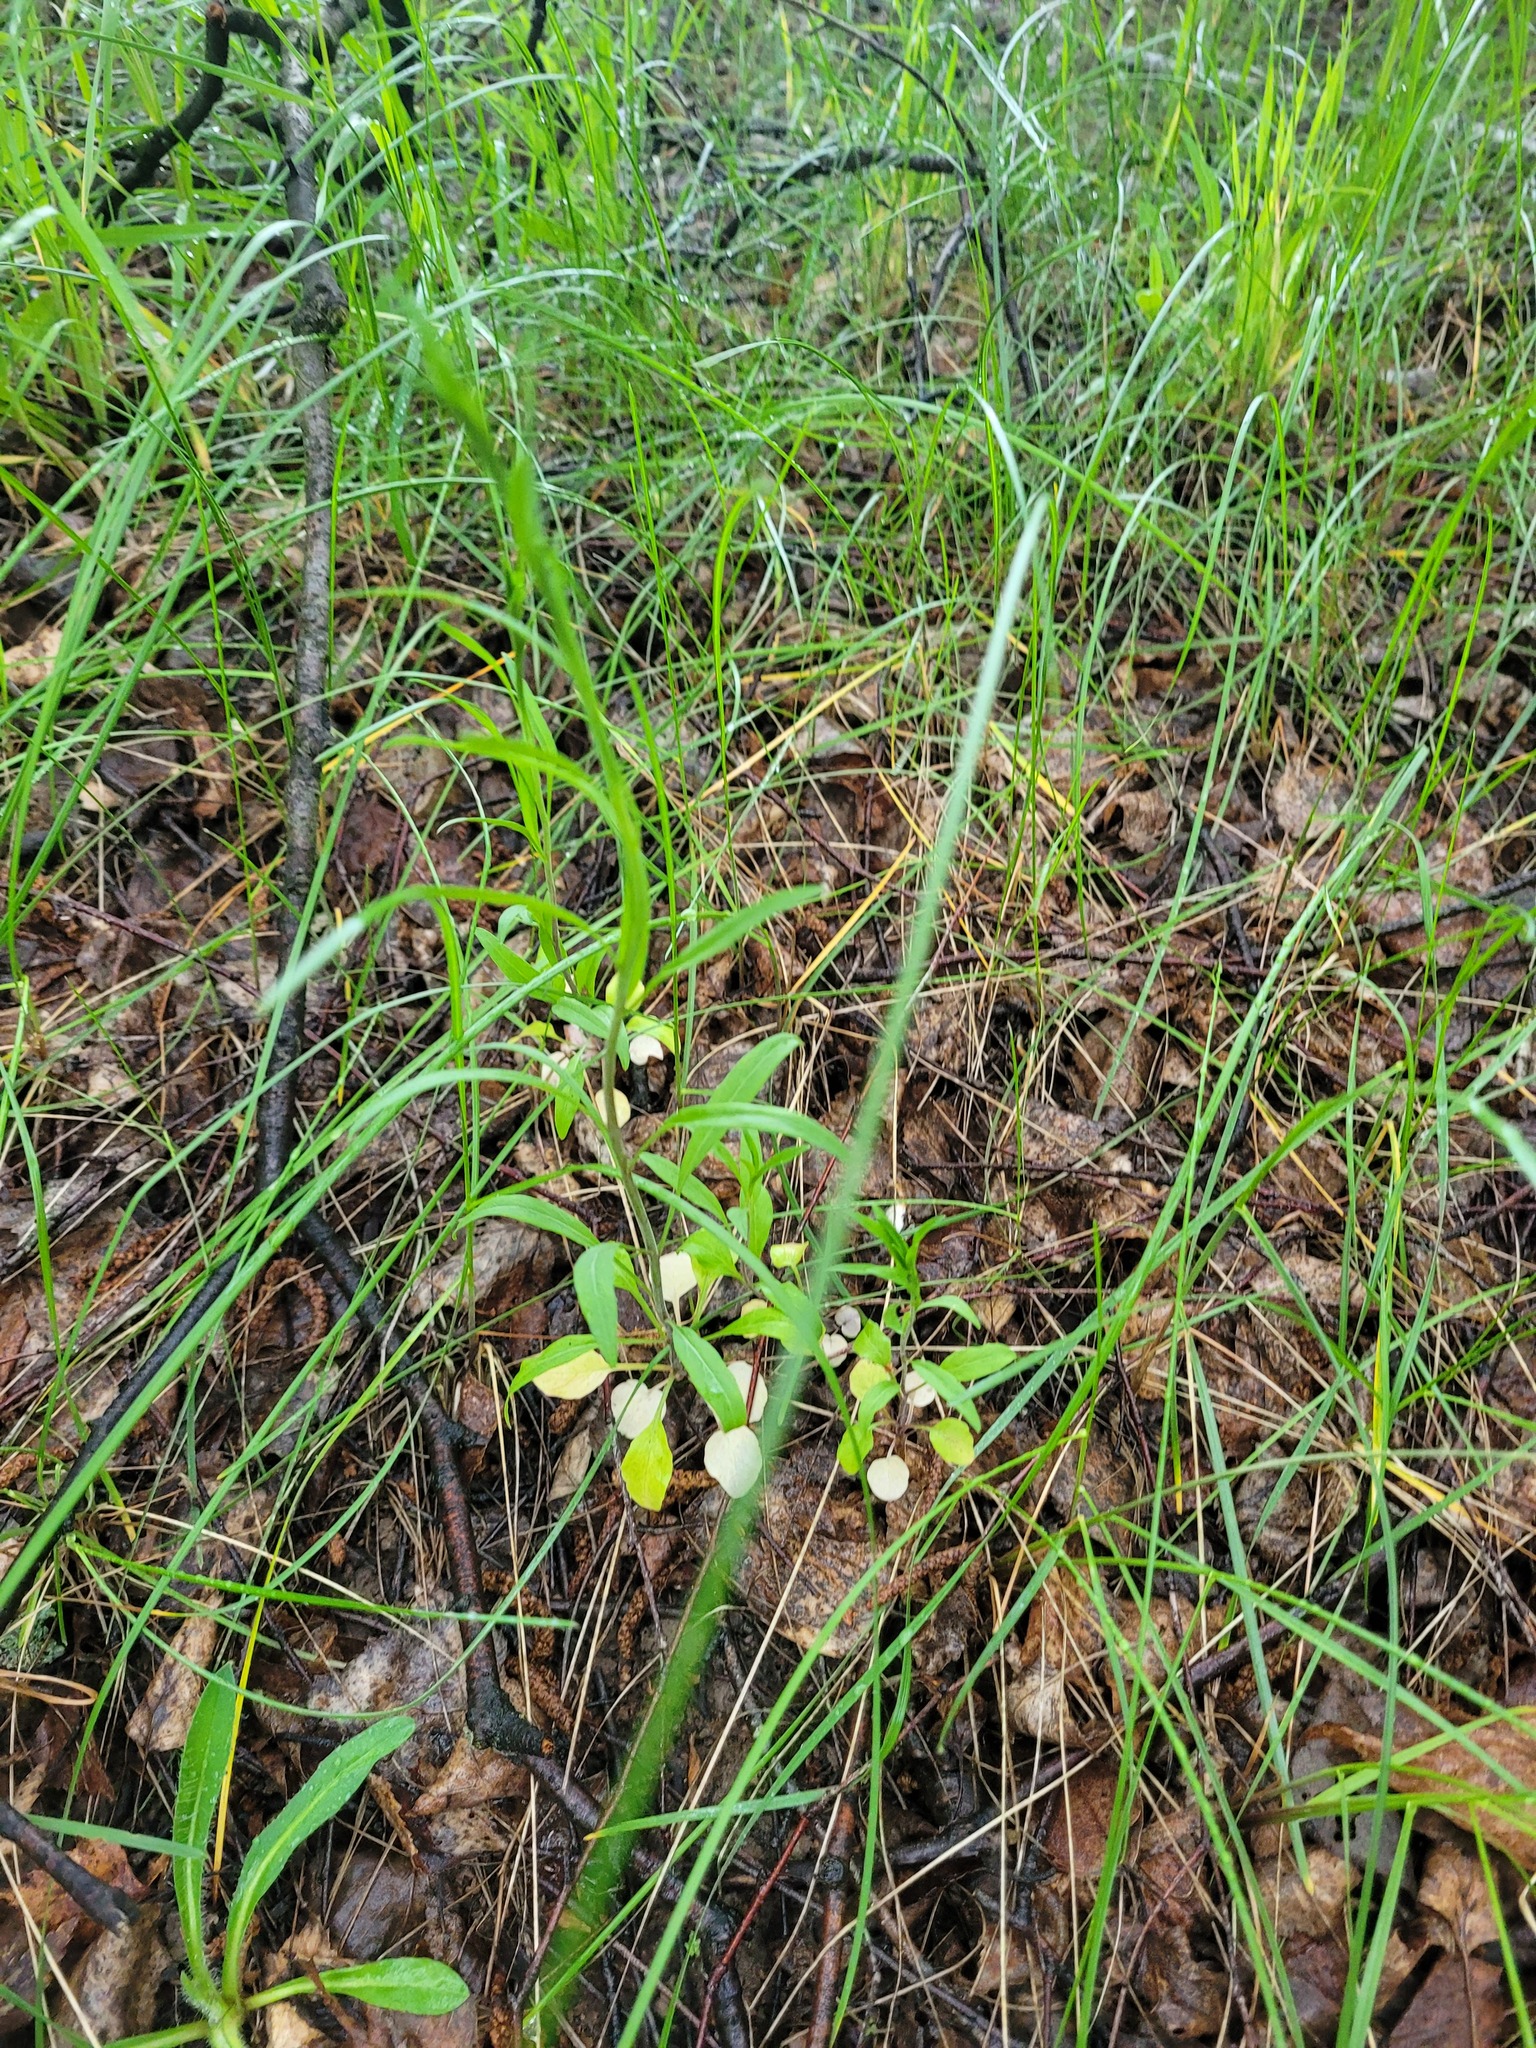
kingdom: Plantae
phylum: Tracheophyta
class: Magnoliopsida
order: Asterales
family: Campanulaceae
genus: Campanula
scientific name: Campanula rotundifolia
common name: Harebell
